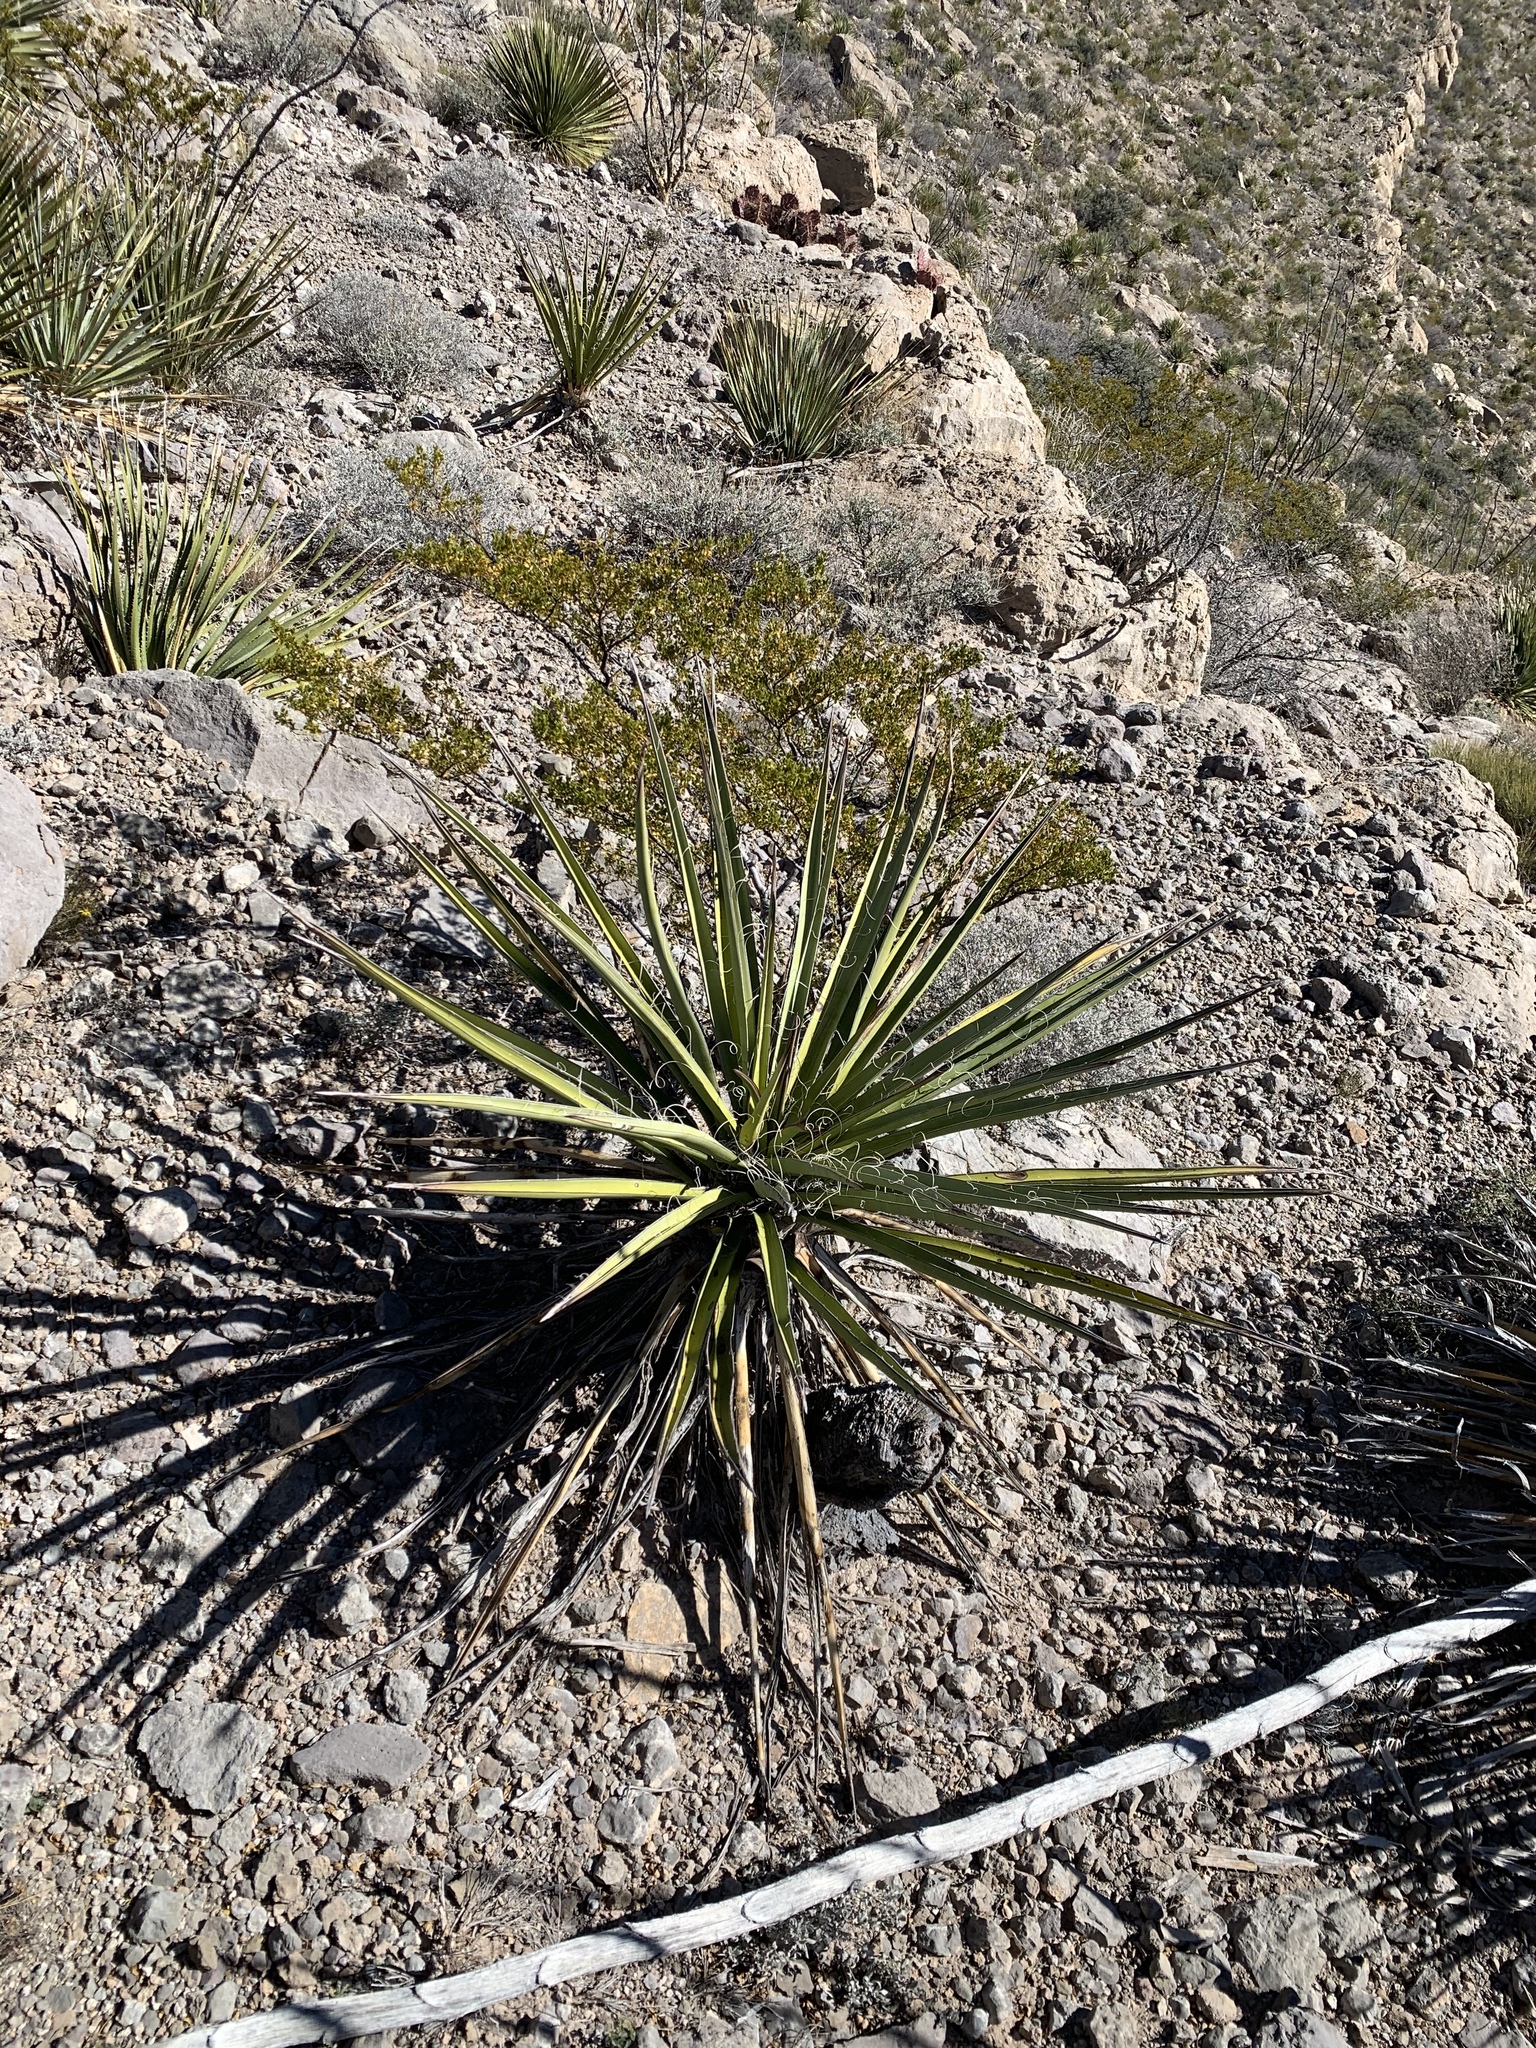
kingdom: Plantae
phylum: Tracheophyta
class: Liliopsida
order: Asparagales
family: Asparagaceae
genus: Yucca
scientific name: Yucca treculiana
